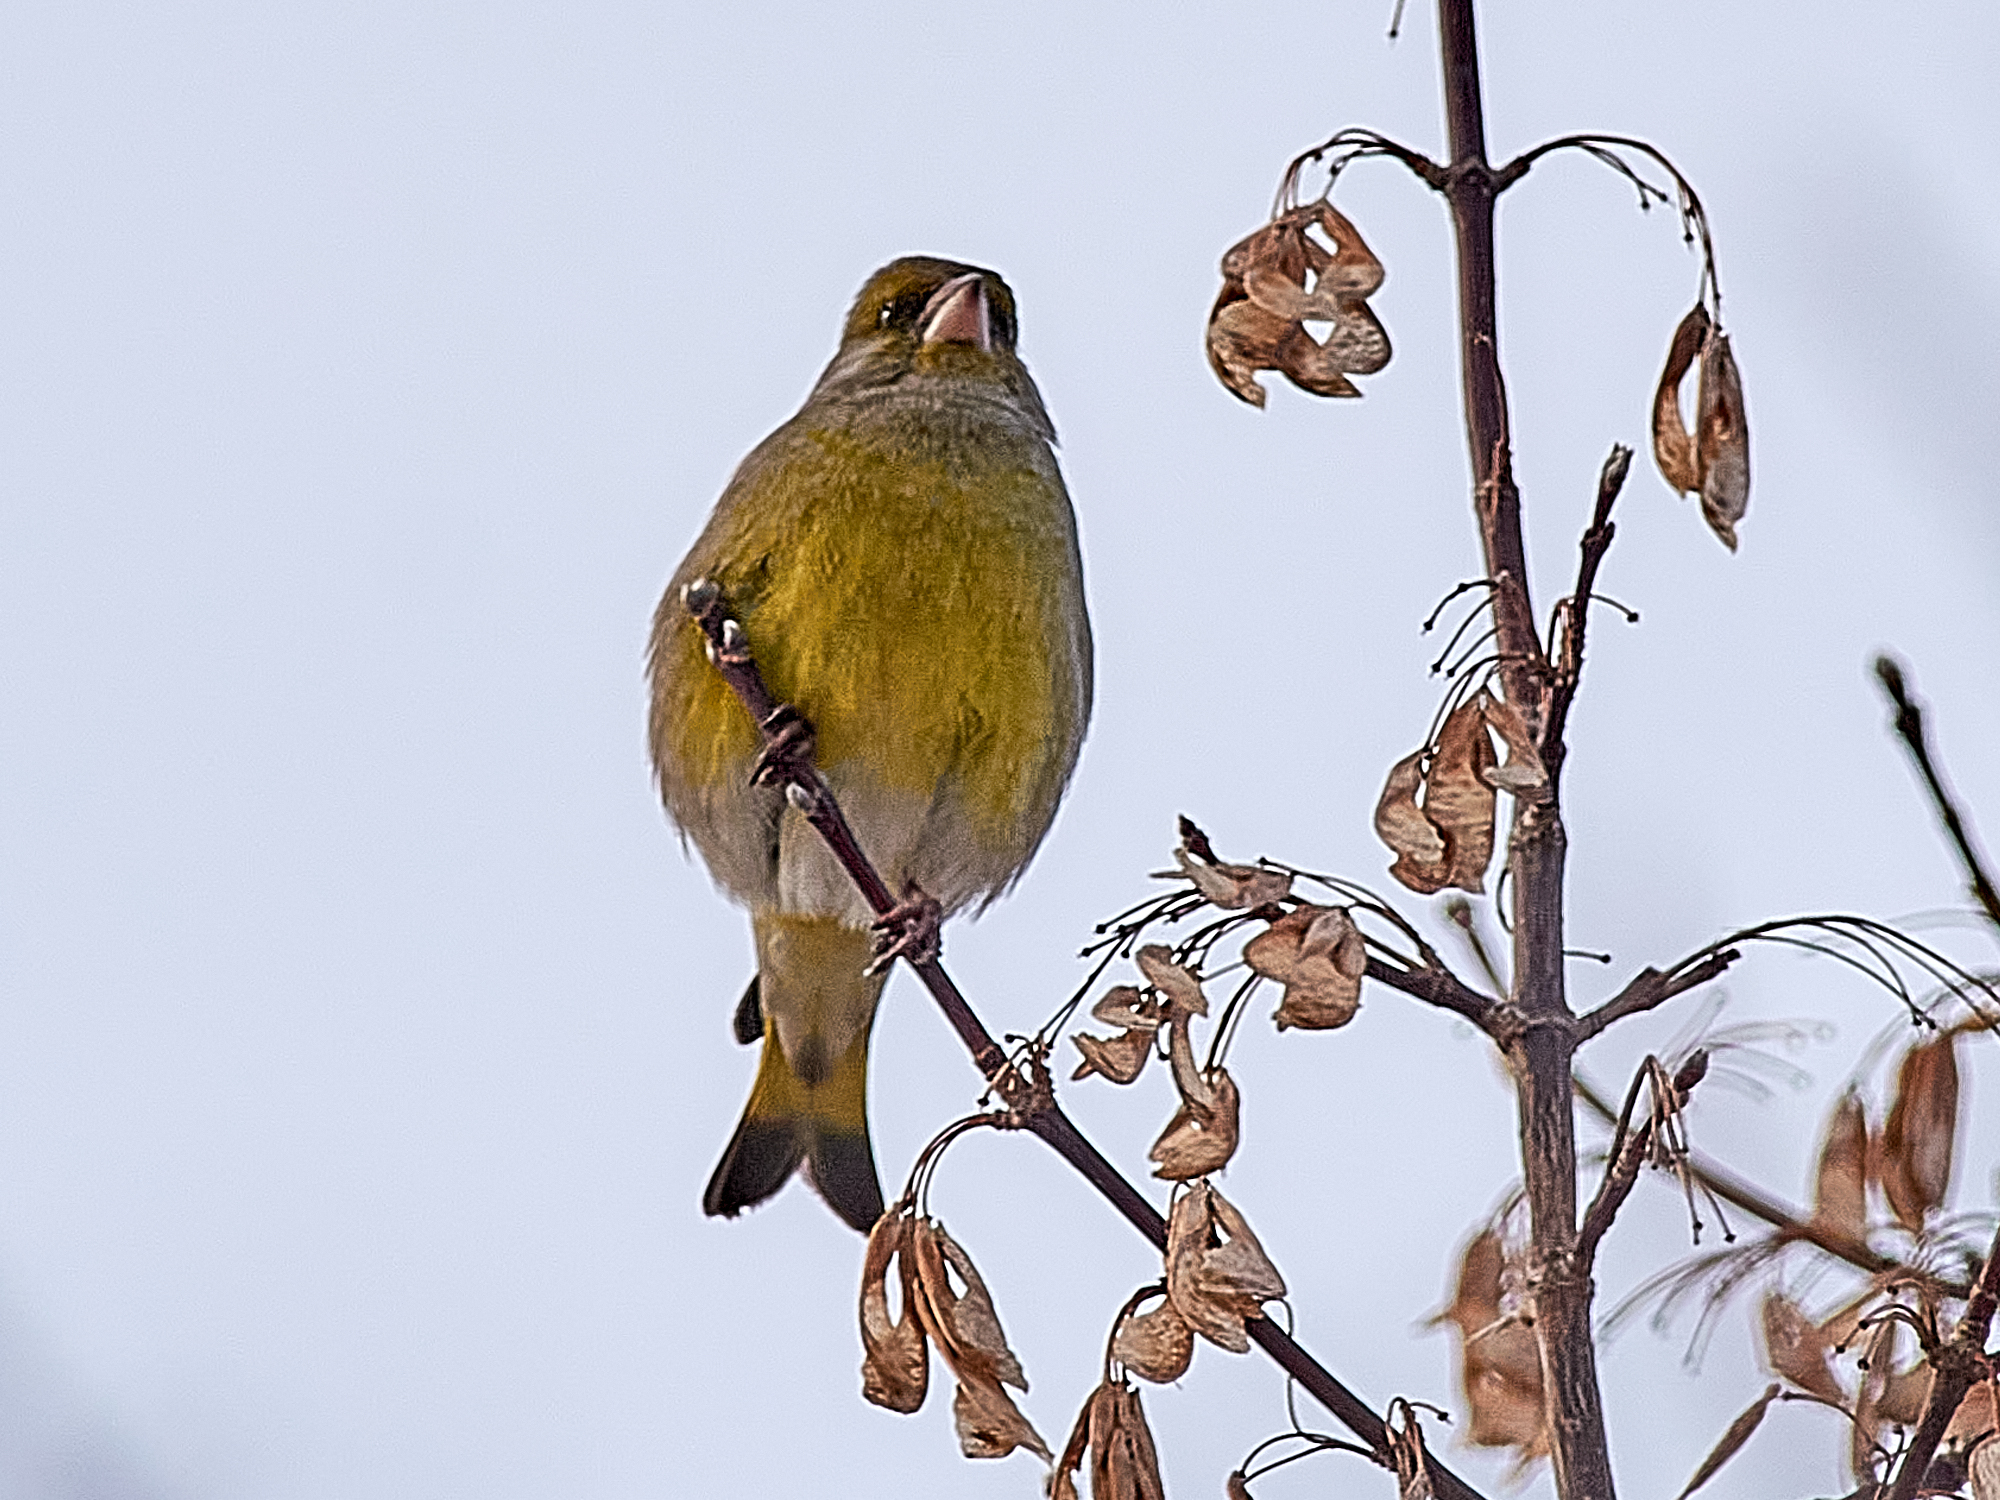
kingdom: Plantae
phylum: Tracheophyta
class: Liliopsida
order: Poales
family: Poaceae
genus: Chloris
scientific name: Chloris chloris
